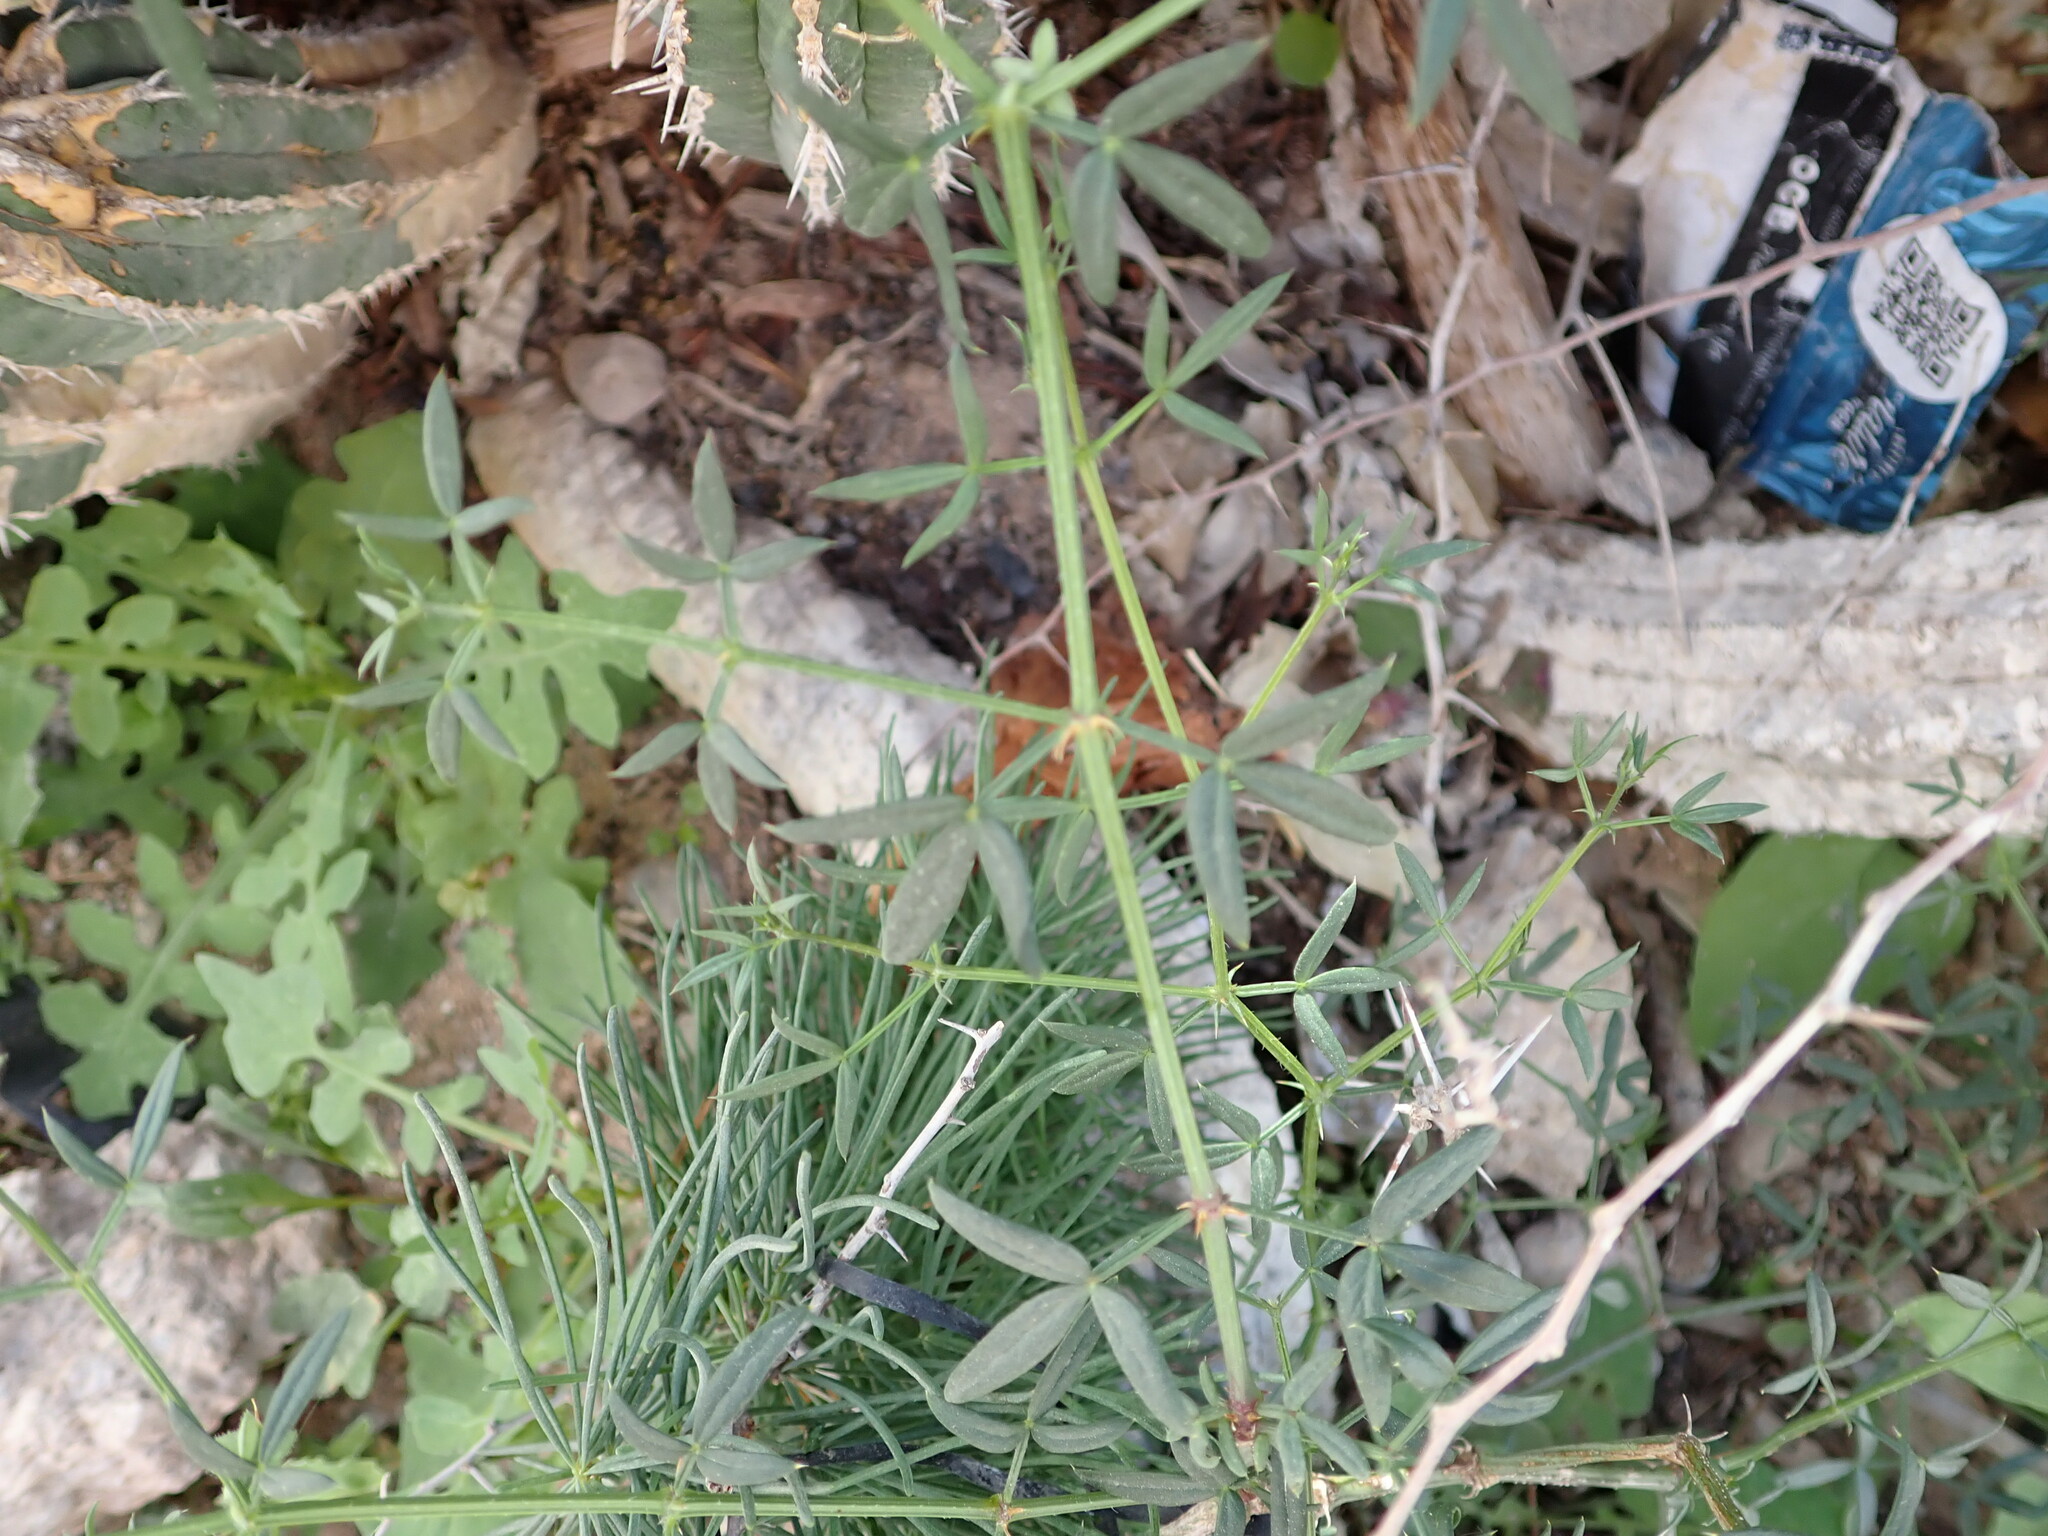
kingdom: Plantae
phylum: Tracheophyta
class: Magnoliopsida
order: Zygophyllales
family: Zygophyllaceae
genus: Fagonia
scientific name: Fagonia cretica
